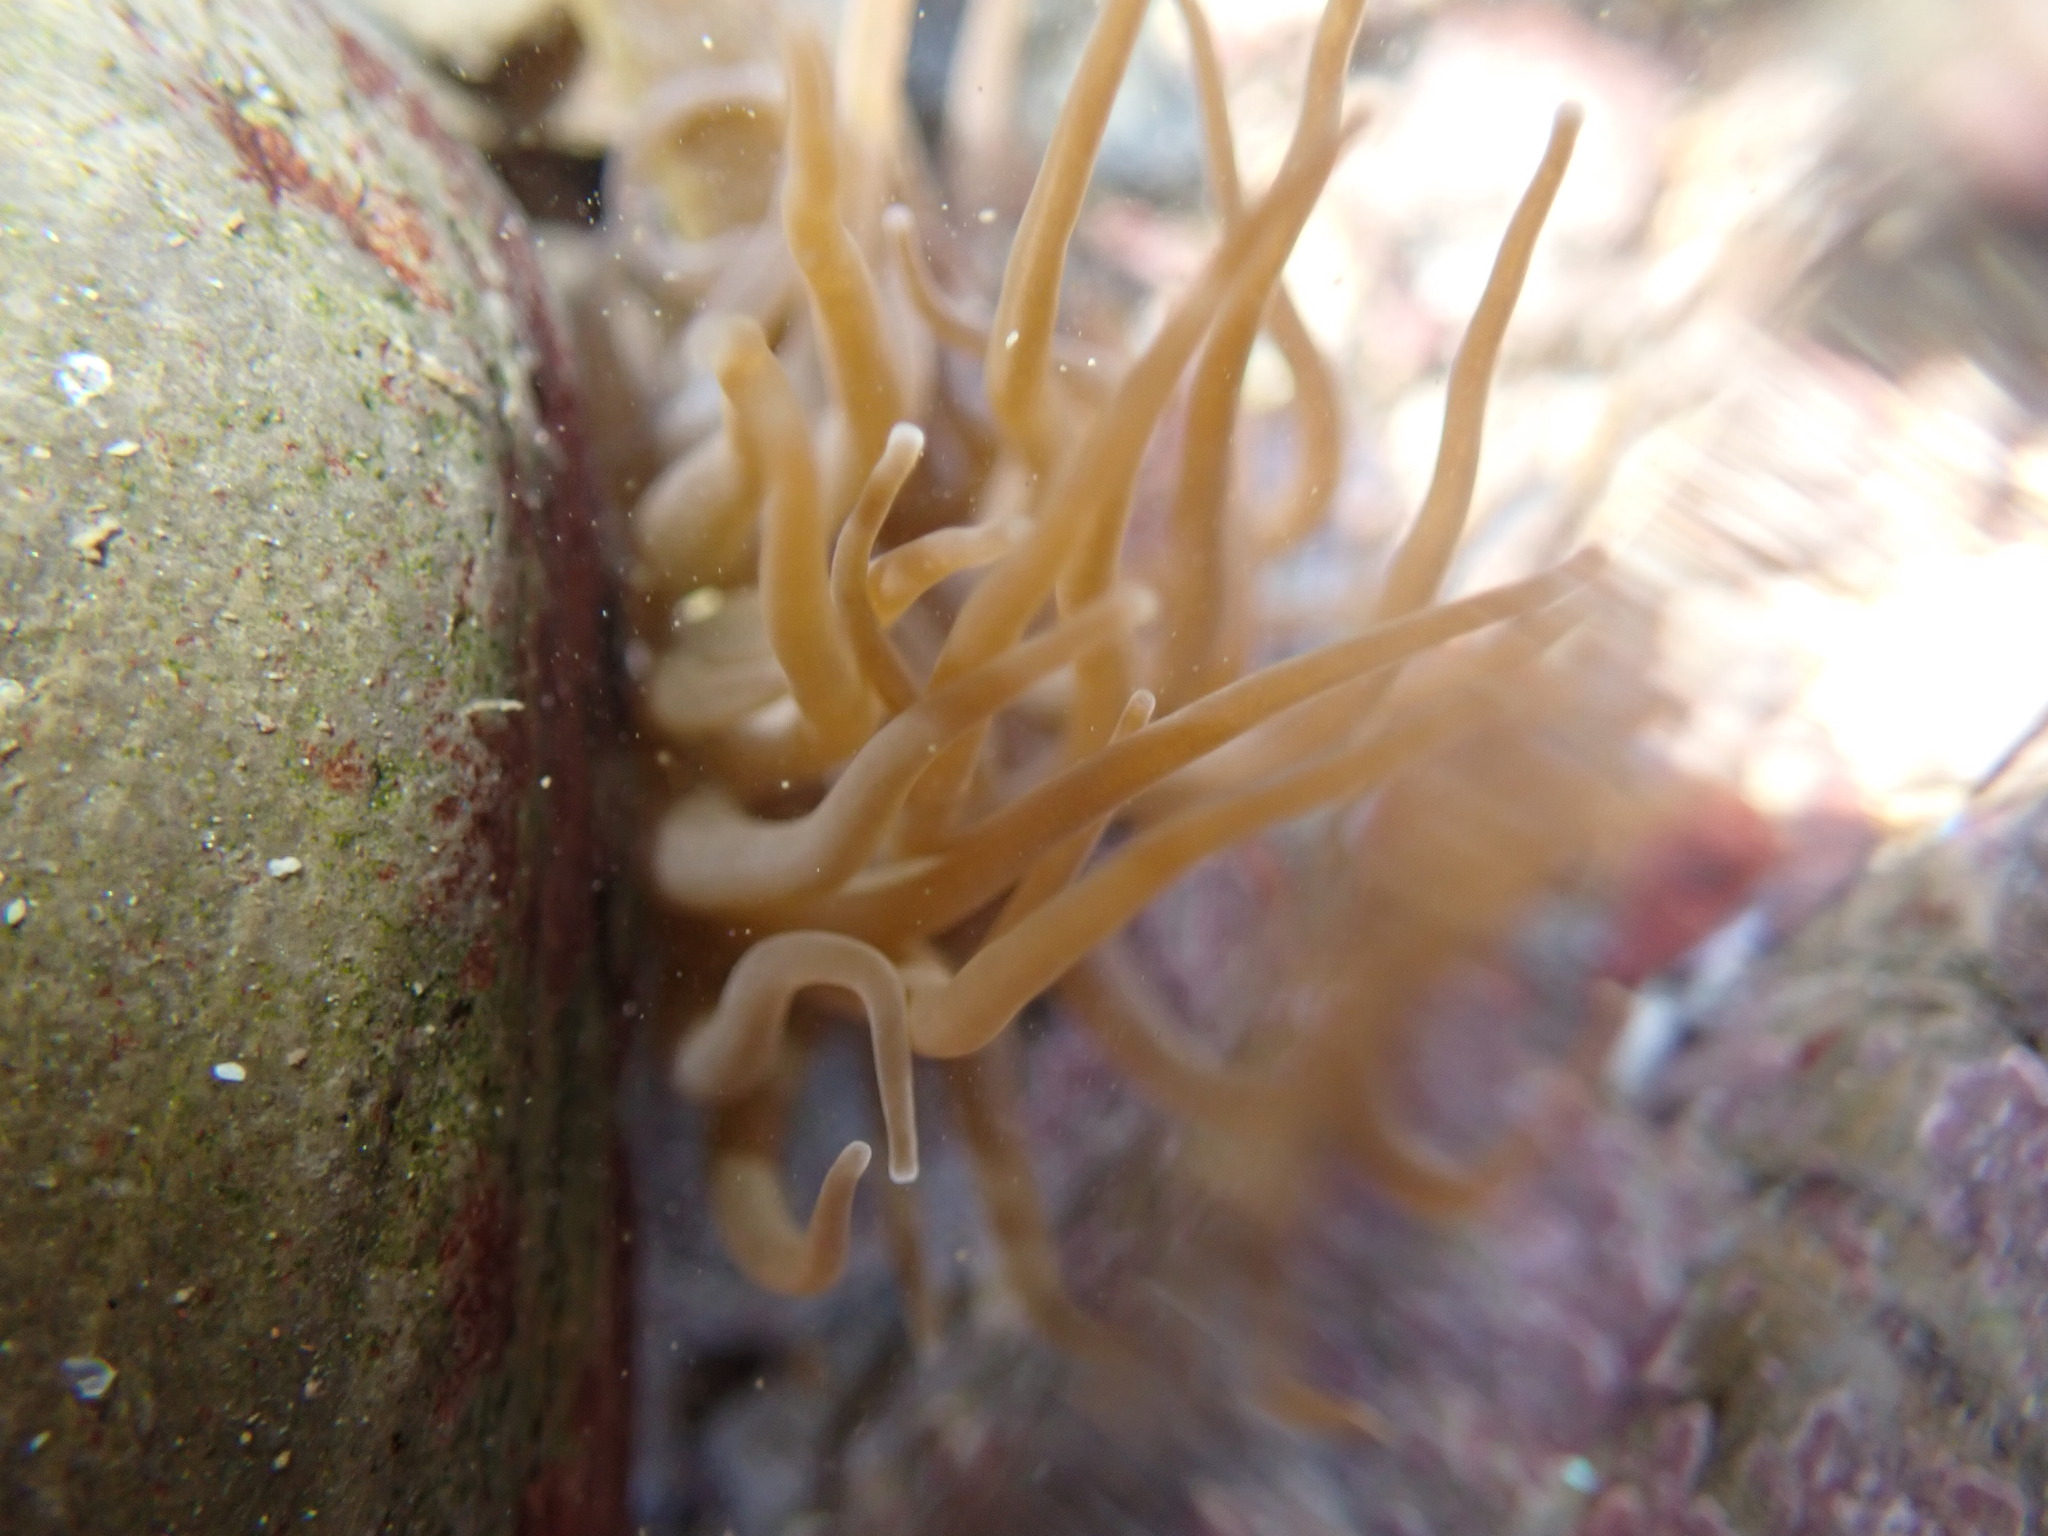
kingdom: Animalia
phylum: Cnidaria
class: Anthozoa
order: Actiniaria
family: Actiniidae
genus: Anemonia
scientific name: Anemonia viridis
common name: Snakelocks anemone
